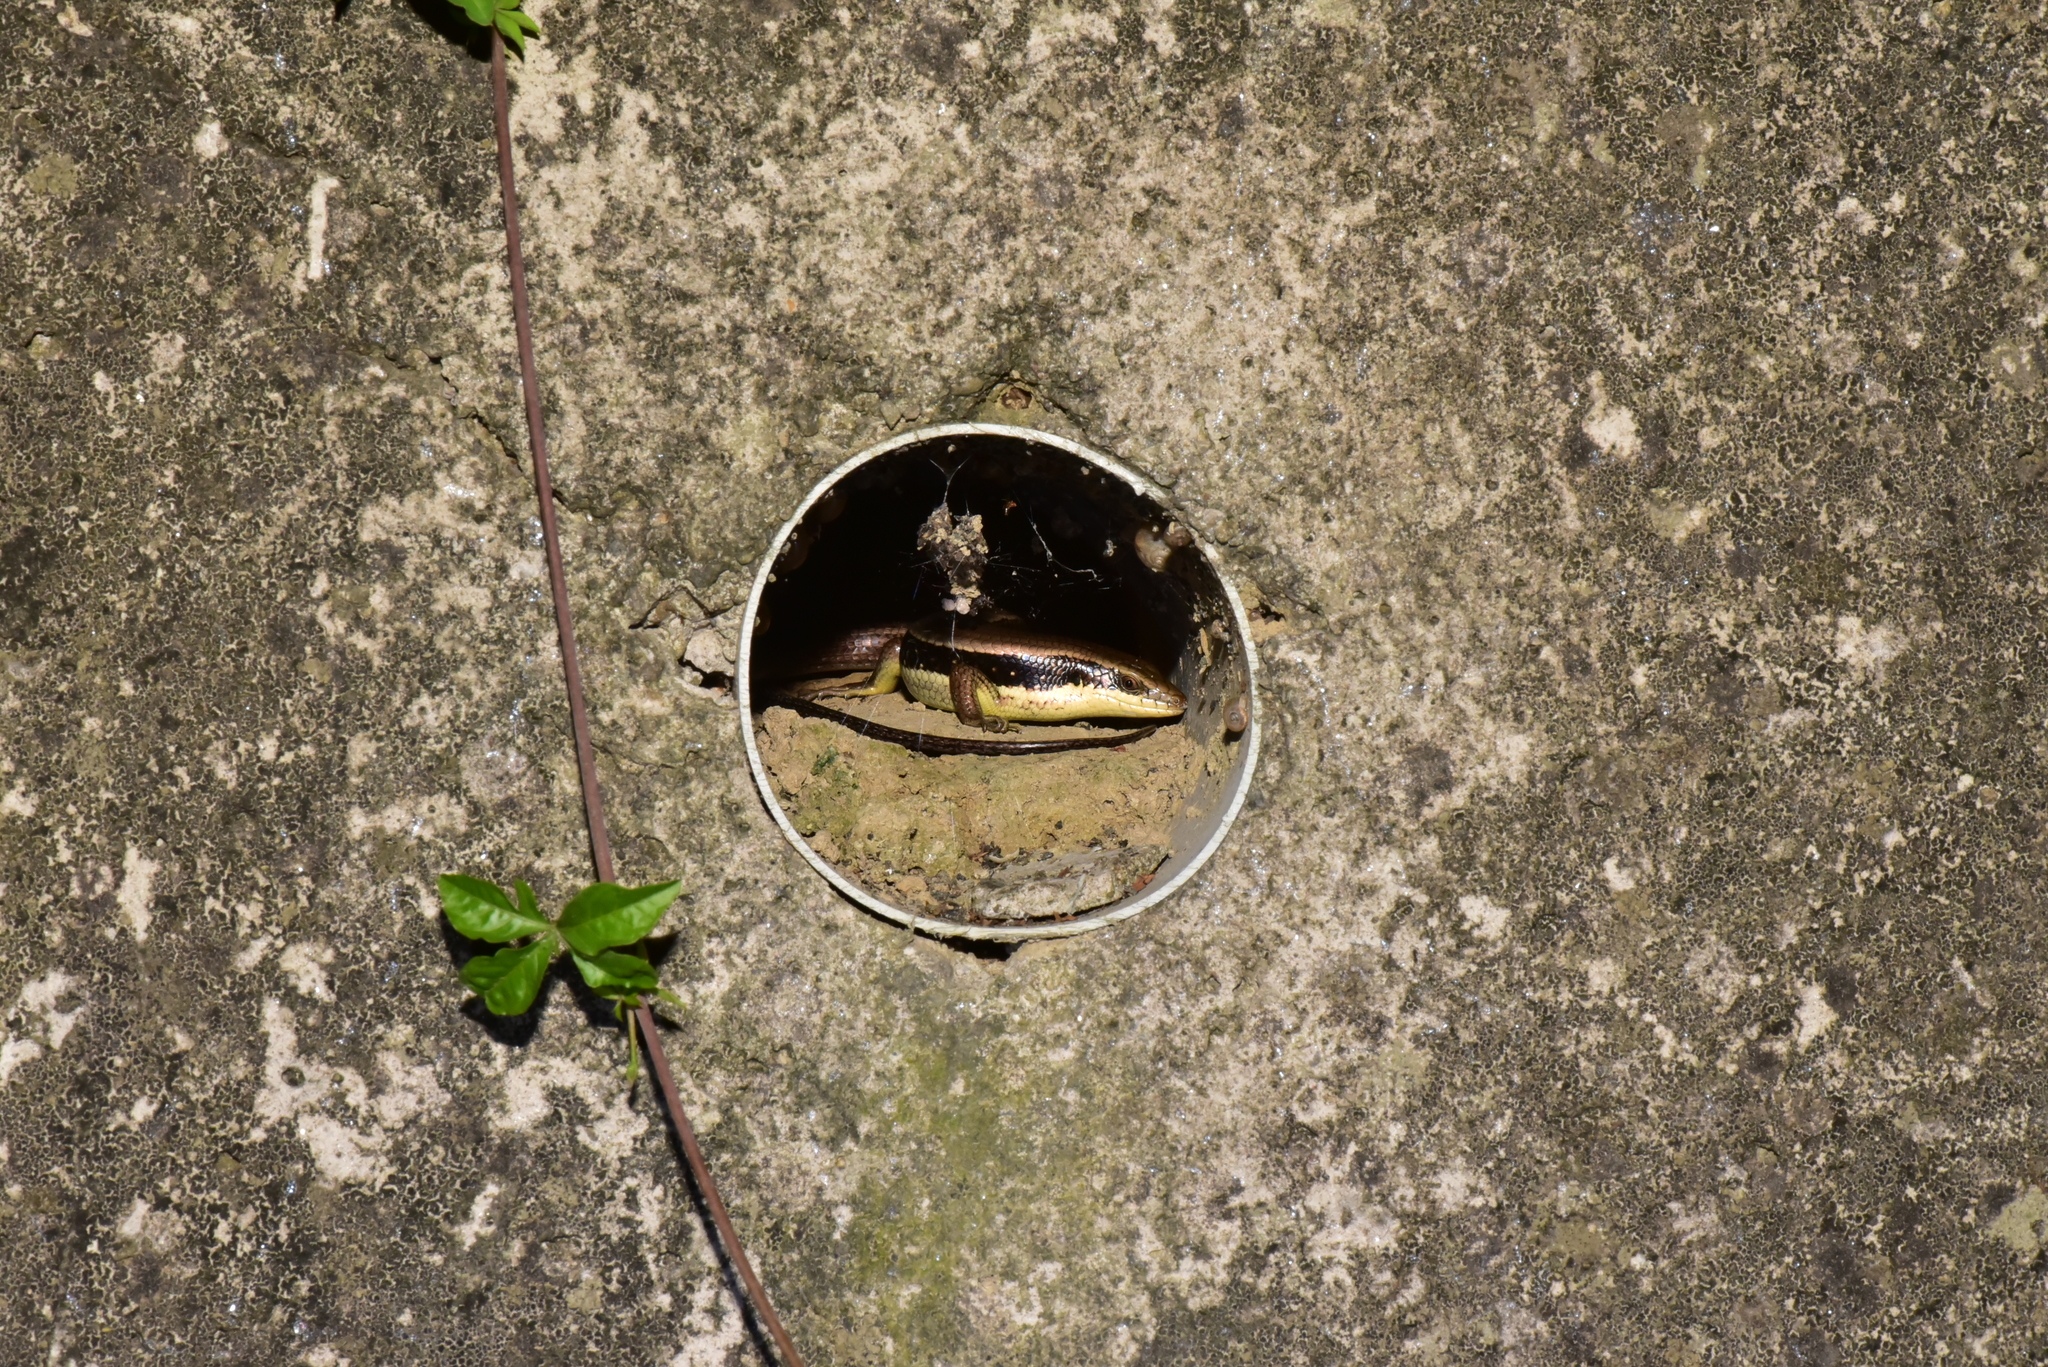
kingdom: Animalia
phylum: Chordata
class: Squamata
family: Scincidae
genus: Eutropis
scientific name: Eutropis longicaudata
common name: Long-tailed sun skink
